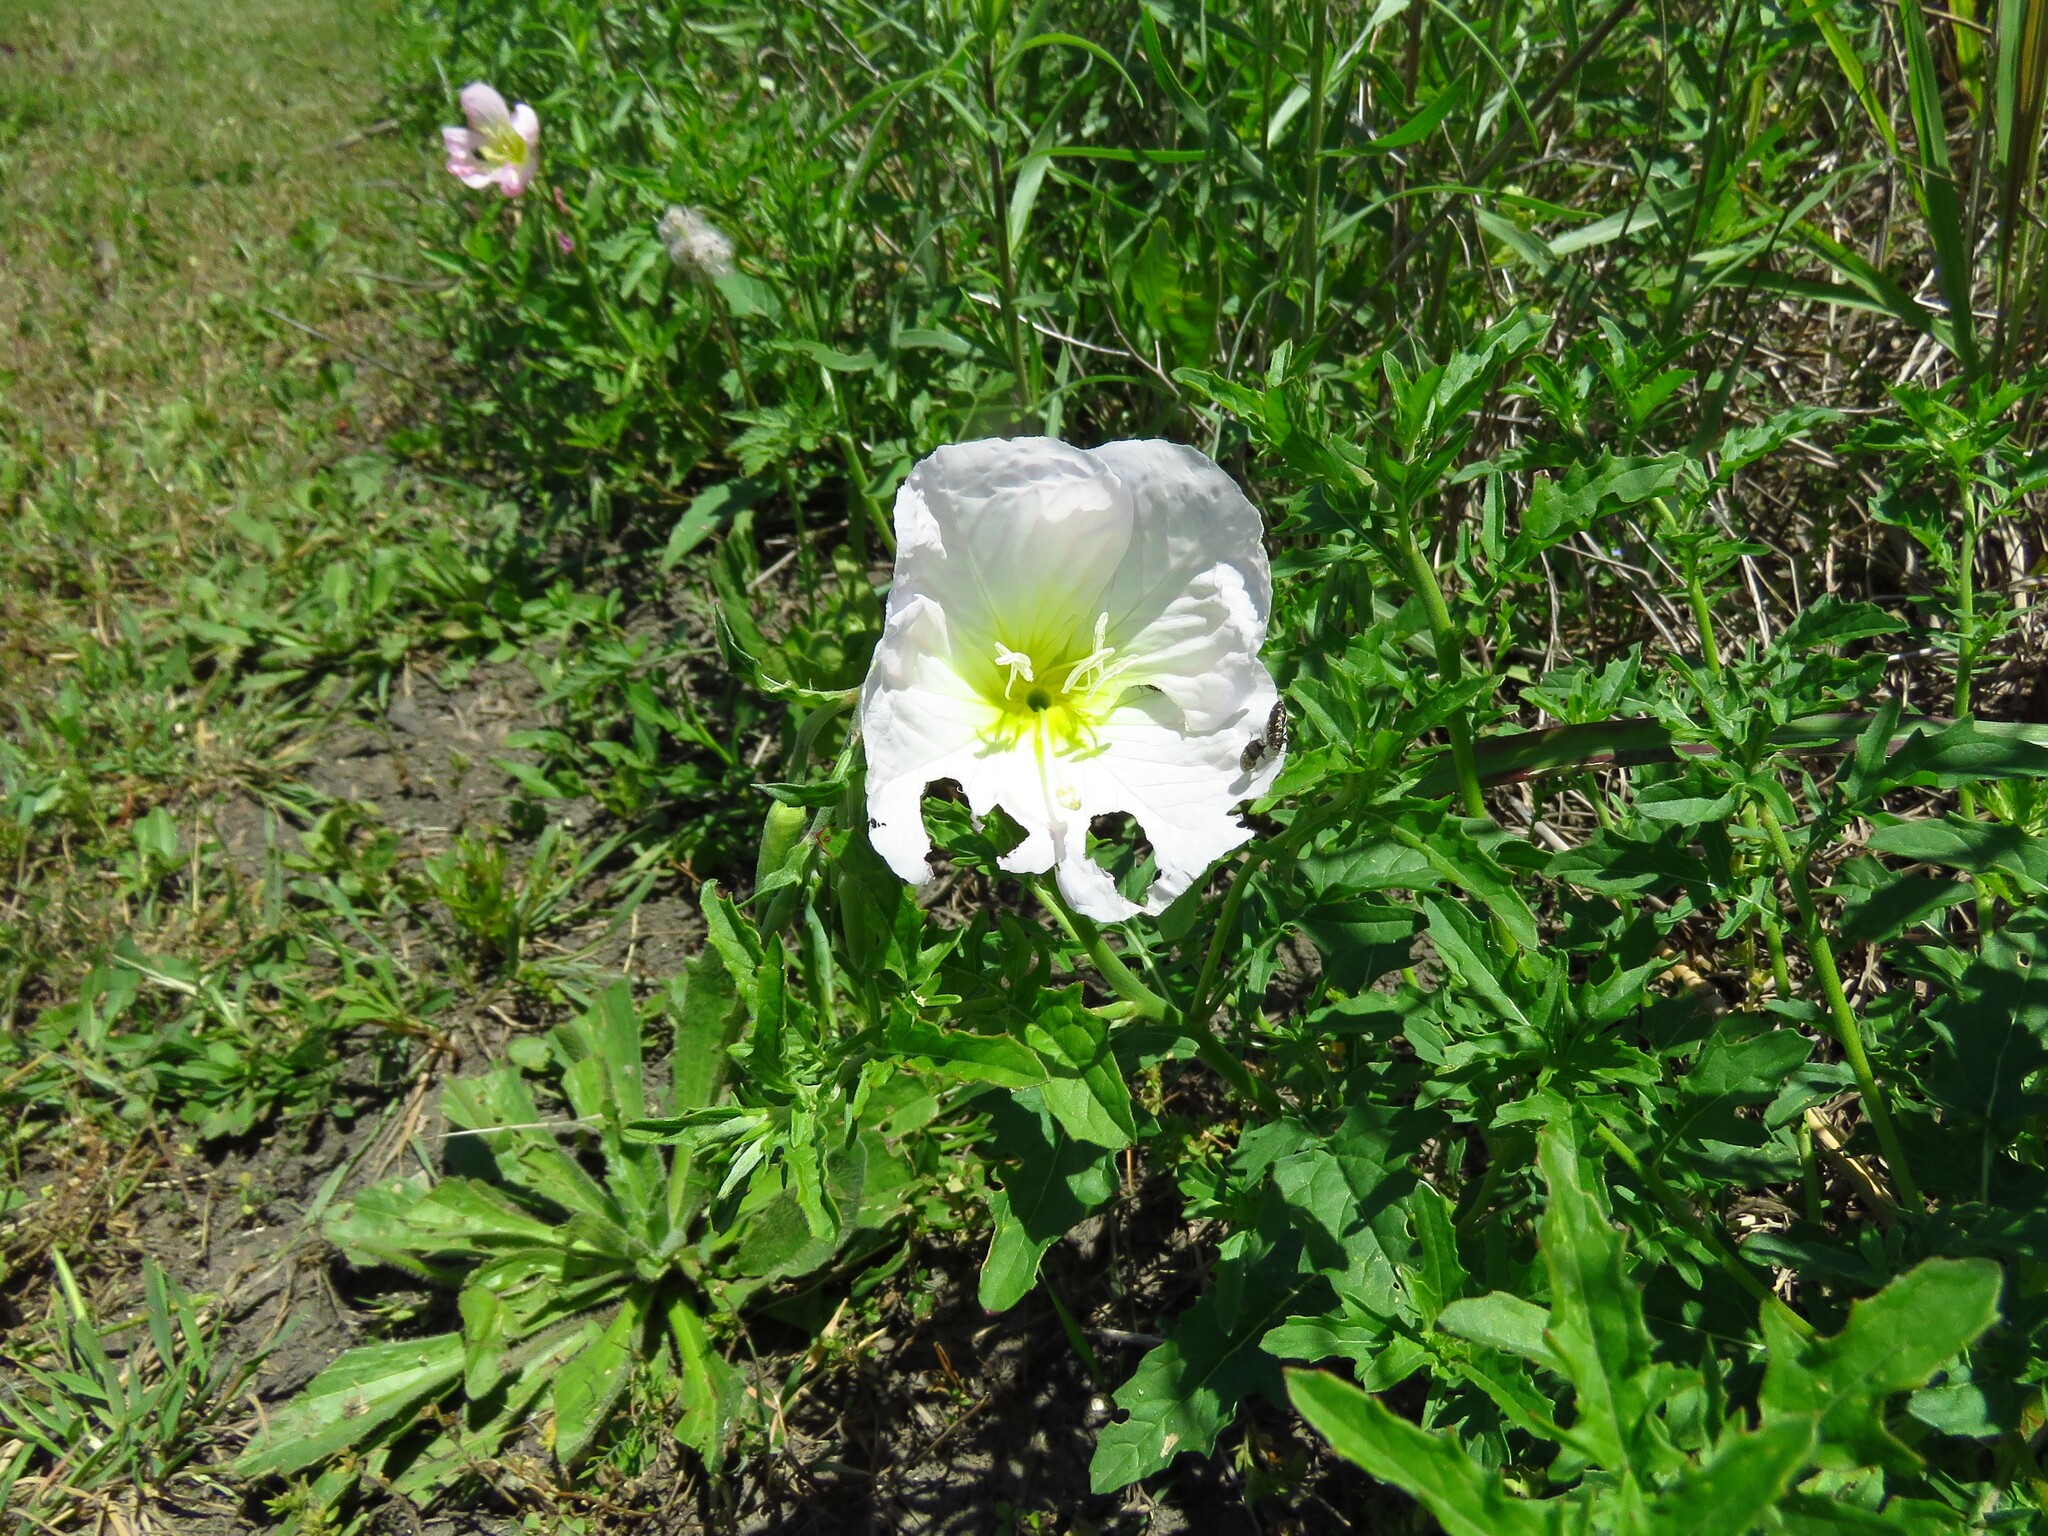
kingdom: Plantae
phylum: Tracheophyta
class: Magnoliopsida
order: Myrtales
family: Onagraceae
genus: Oenothera
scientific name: Oenothera speciosa
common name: White evening-primrose
